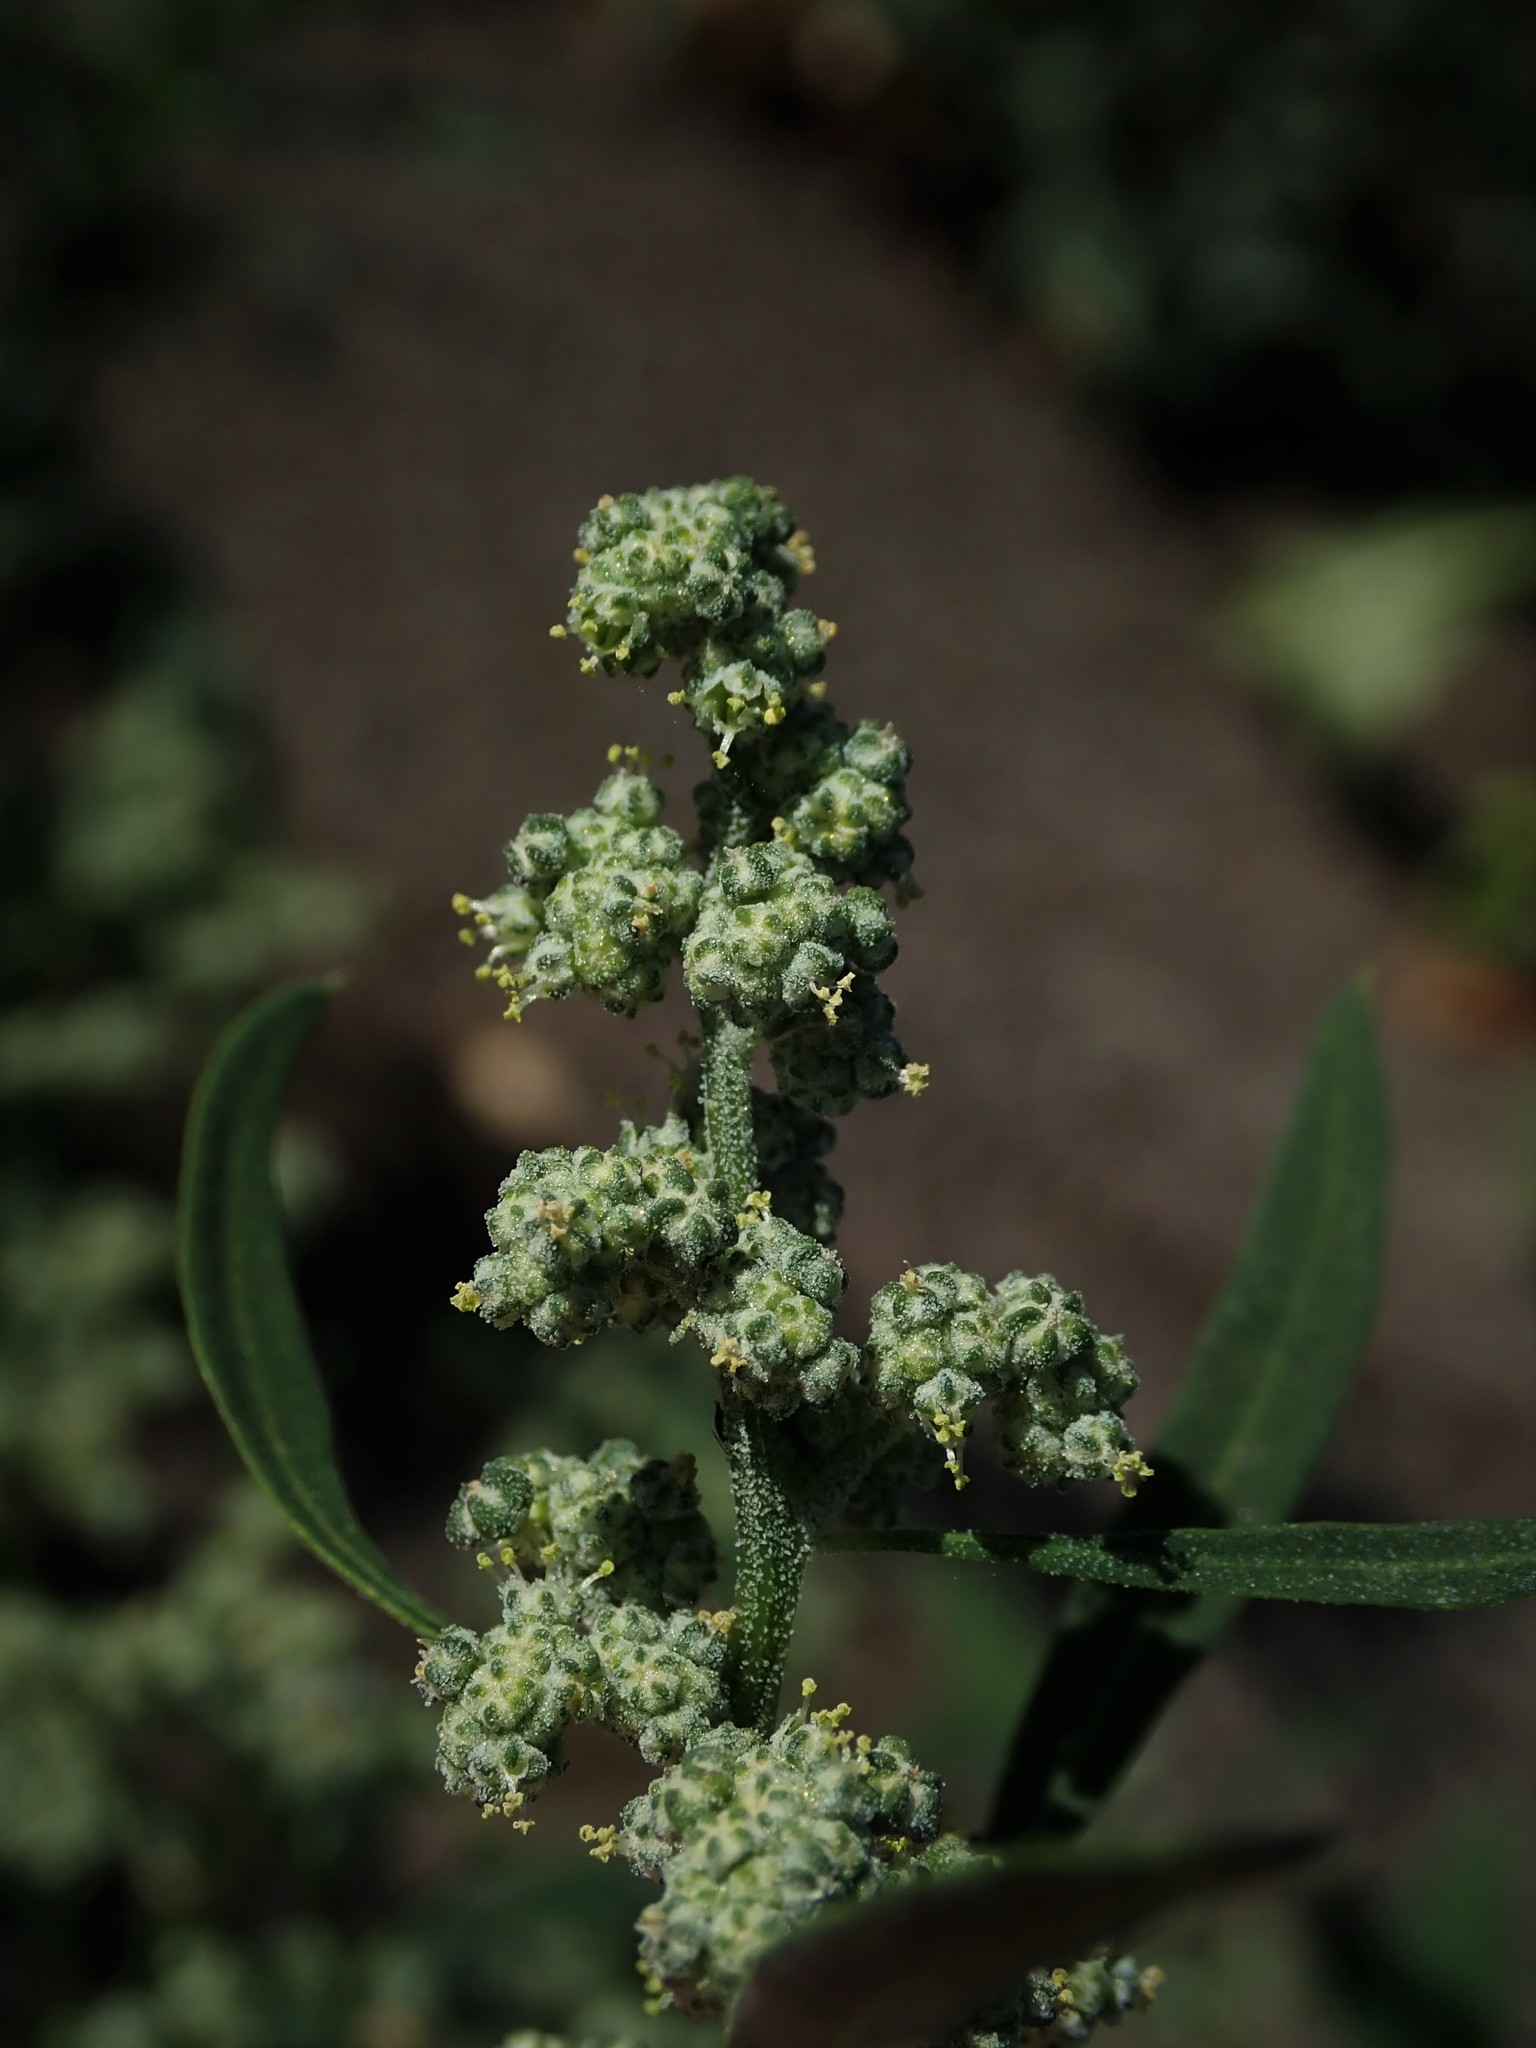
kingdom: Plantae
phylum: Tracheophyta
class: Magnoliopsida
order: Caryophyllales
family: Amaranthaceae
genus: Chenopodium
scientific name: Chenopodium album
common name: Fat-hen
